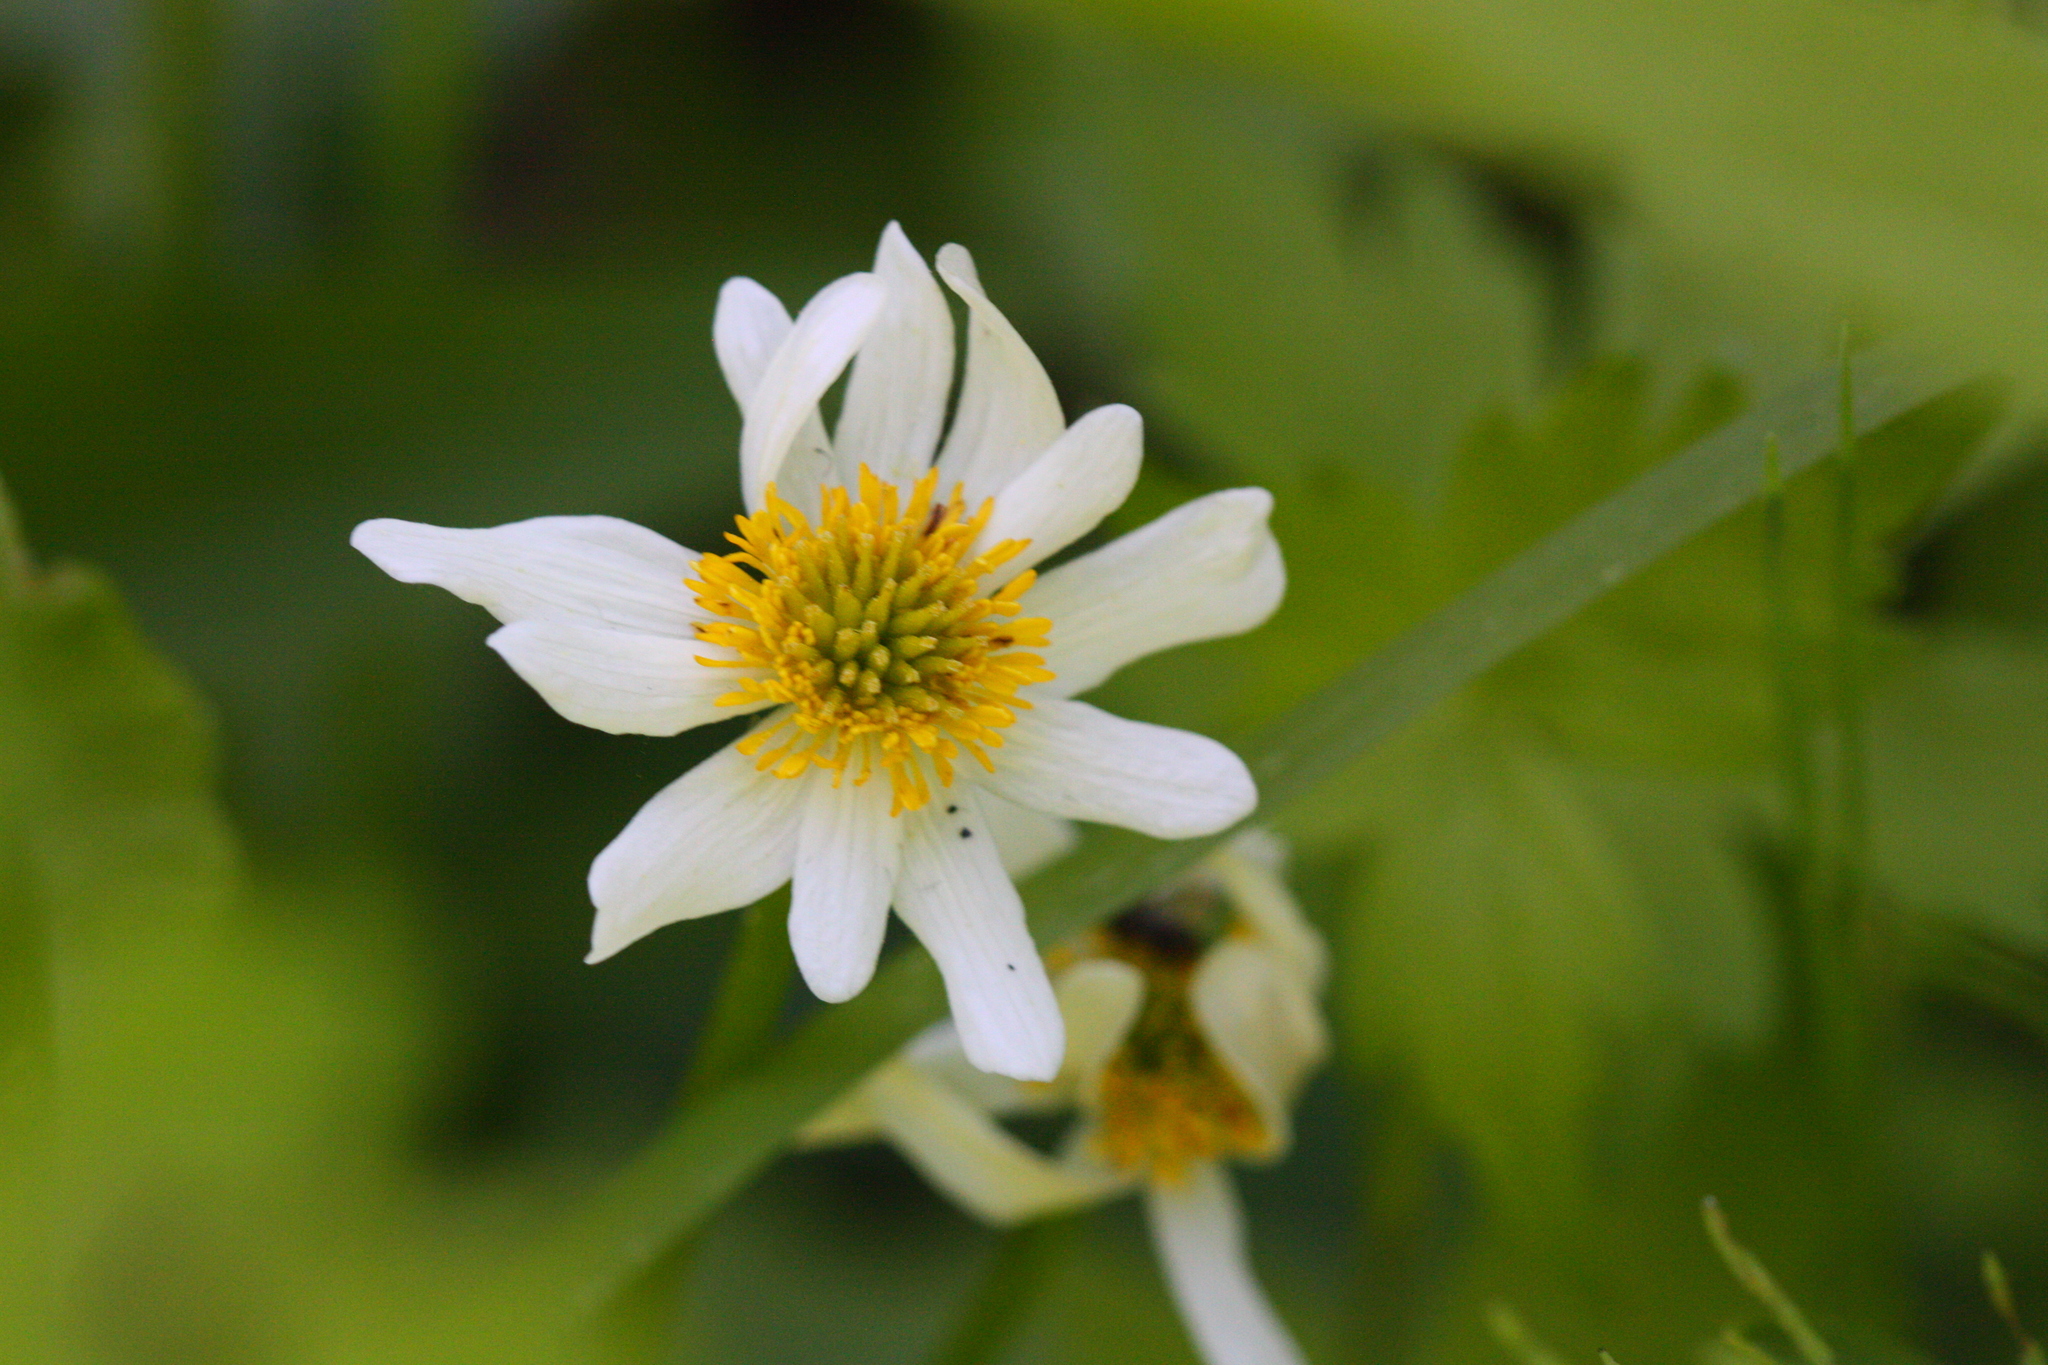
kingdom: Plantae
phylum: Tracheophyta
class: Magnoliopsida
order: Ranunculales
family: Ranunculaceae
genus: Caltha
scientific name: Caltha leptosepala
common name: Elkslip
